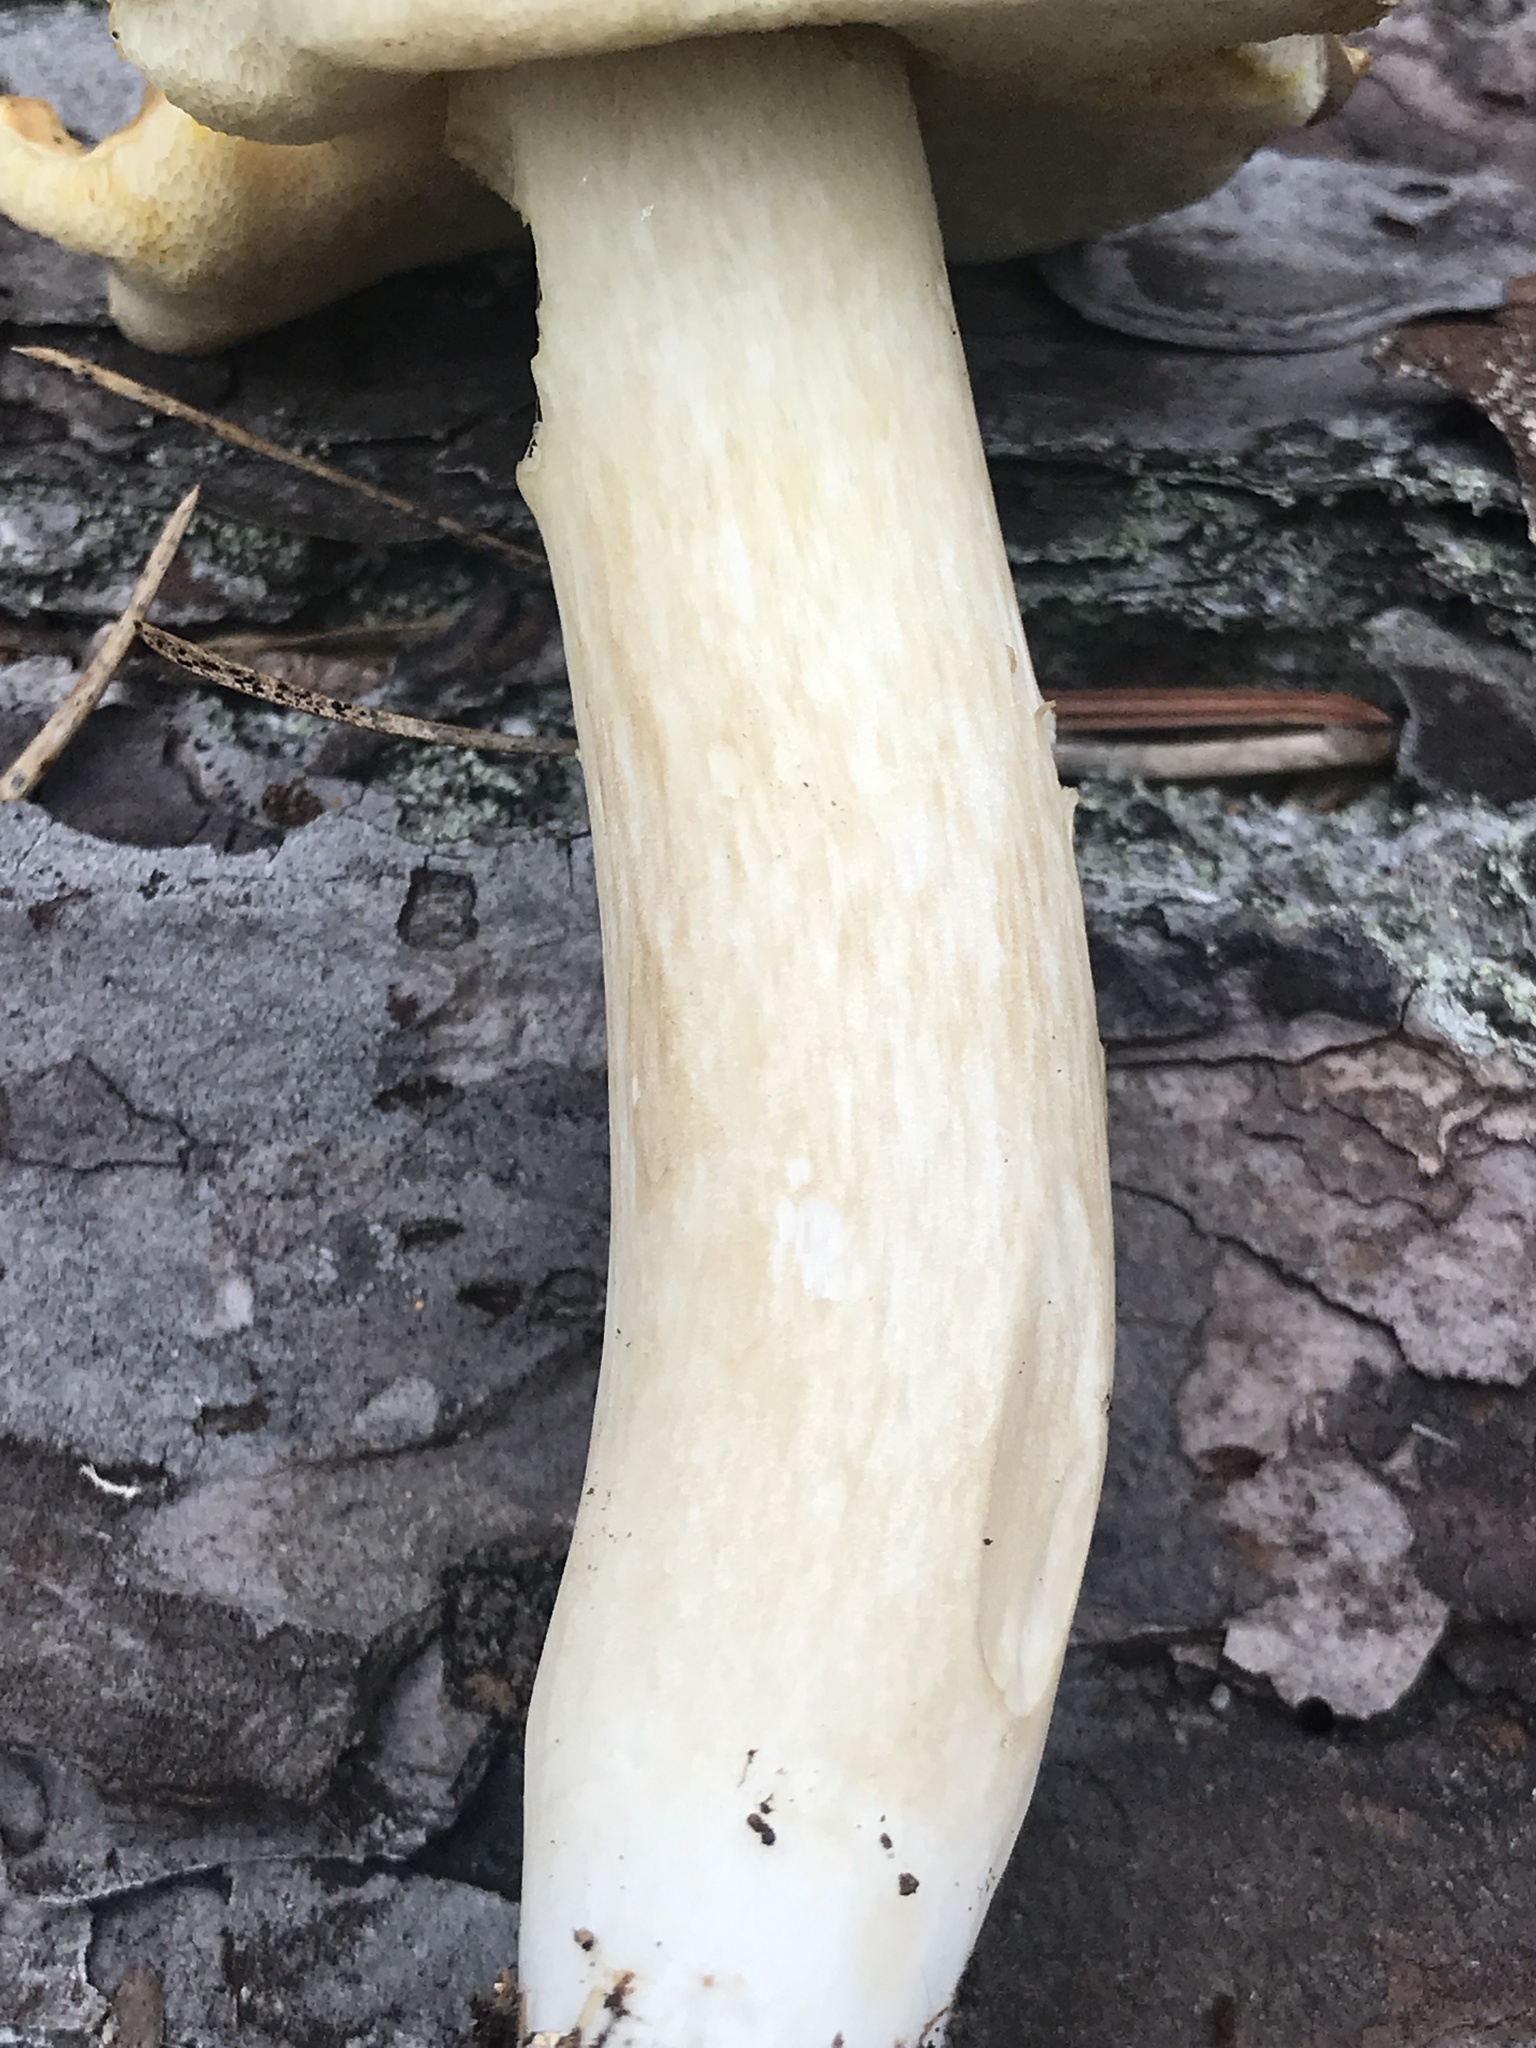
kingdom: Fungi
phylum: Basidiomycota
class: Agaricomycetes
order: Boletales
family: Boletaceae
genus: Xanthoconium
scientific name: Xanthoconium affine
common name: Spotted bolete
